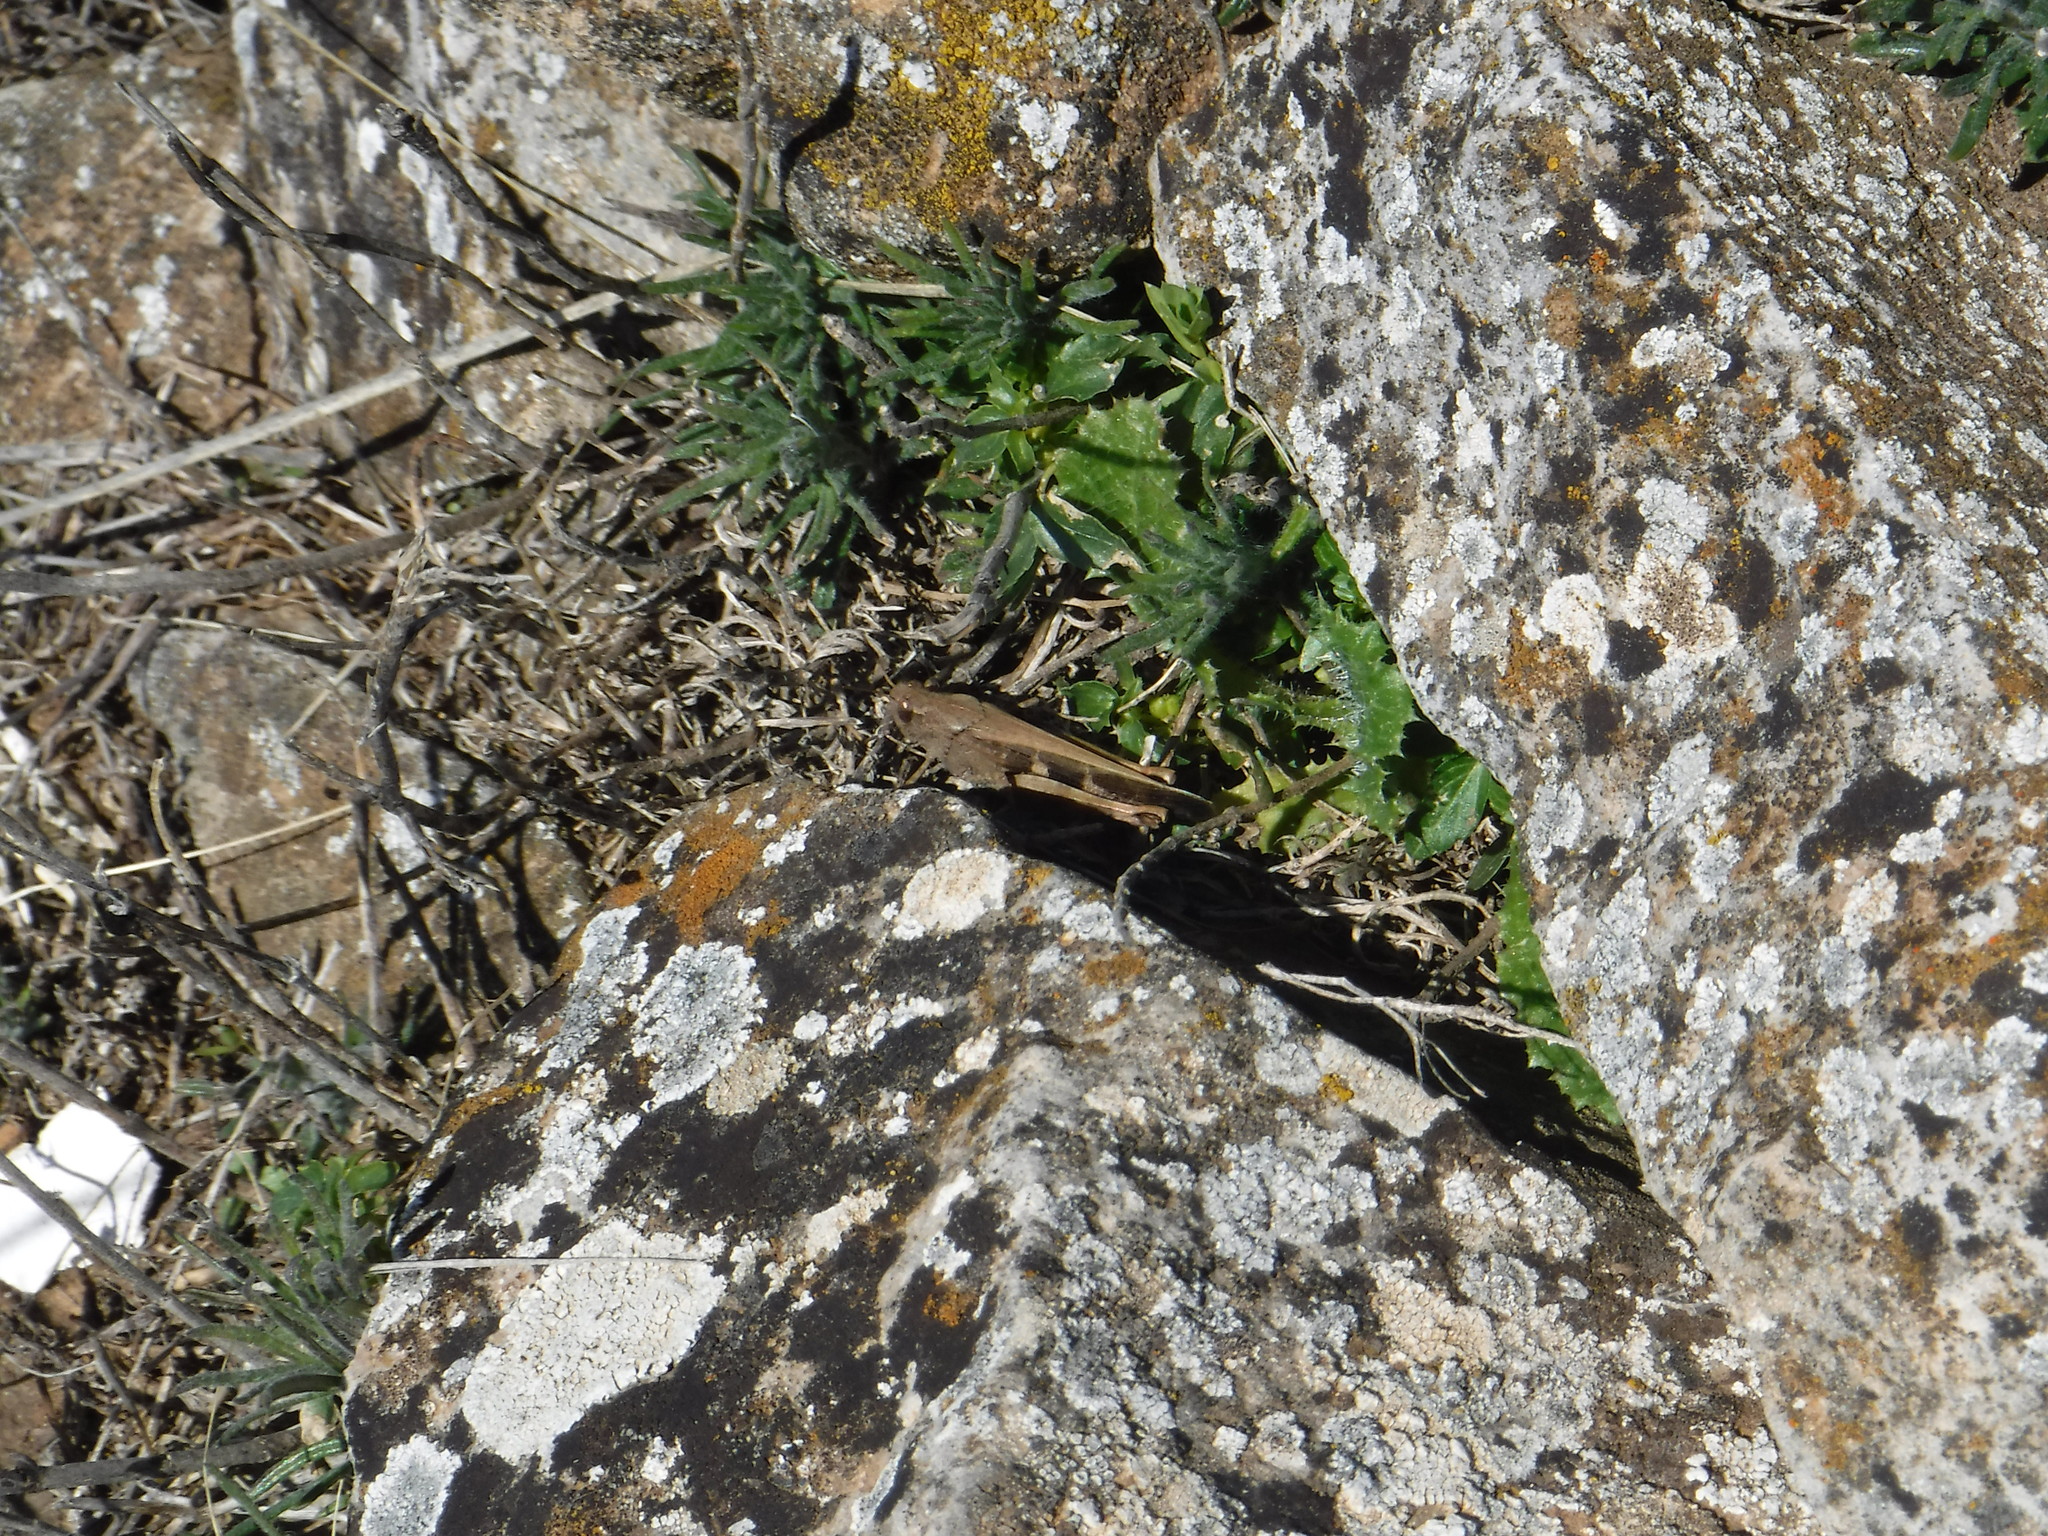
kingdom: Animalia
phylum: Arthropoda
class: Insecta
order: Orthoptera
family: Acrididae
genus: Aiolopus
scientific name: Aiolopus strepens
